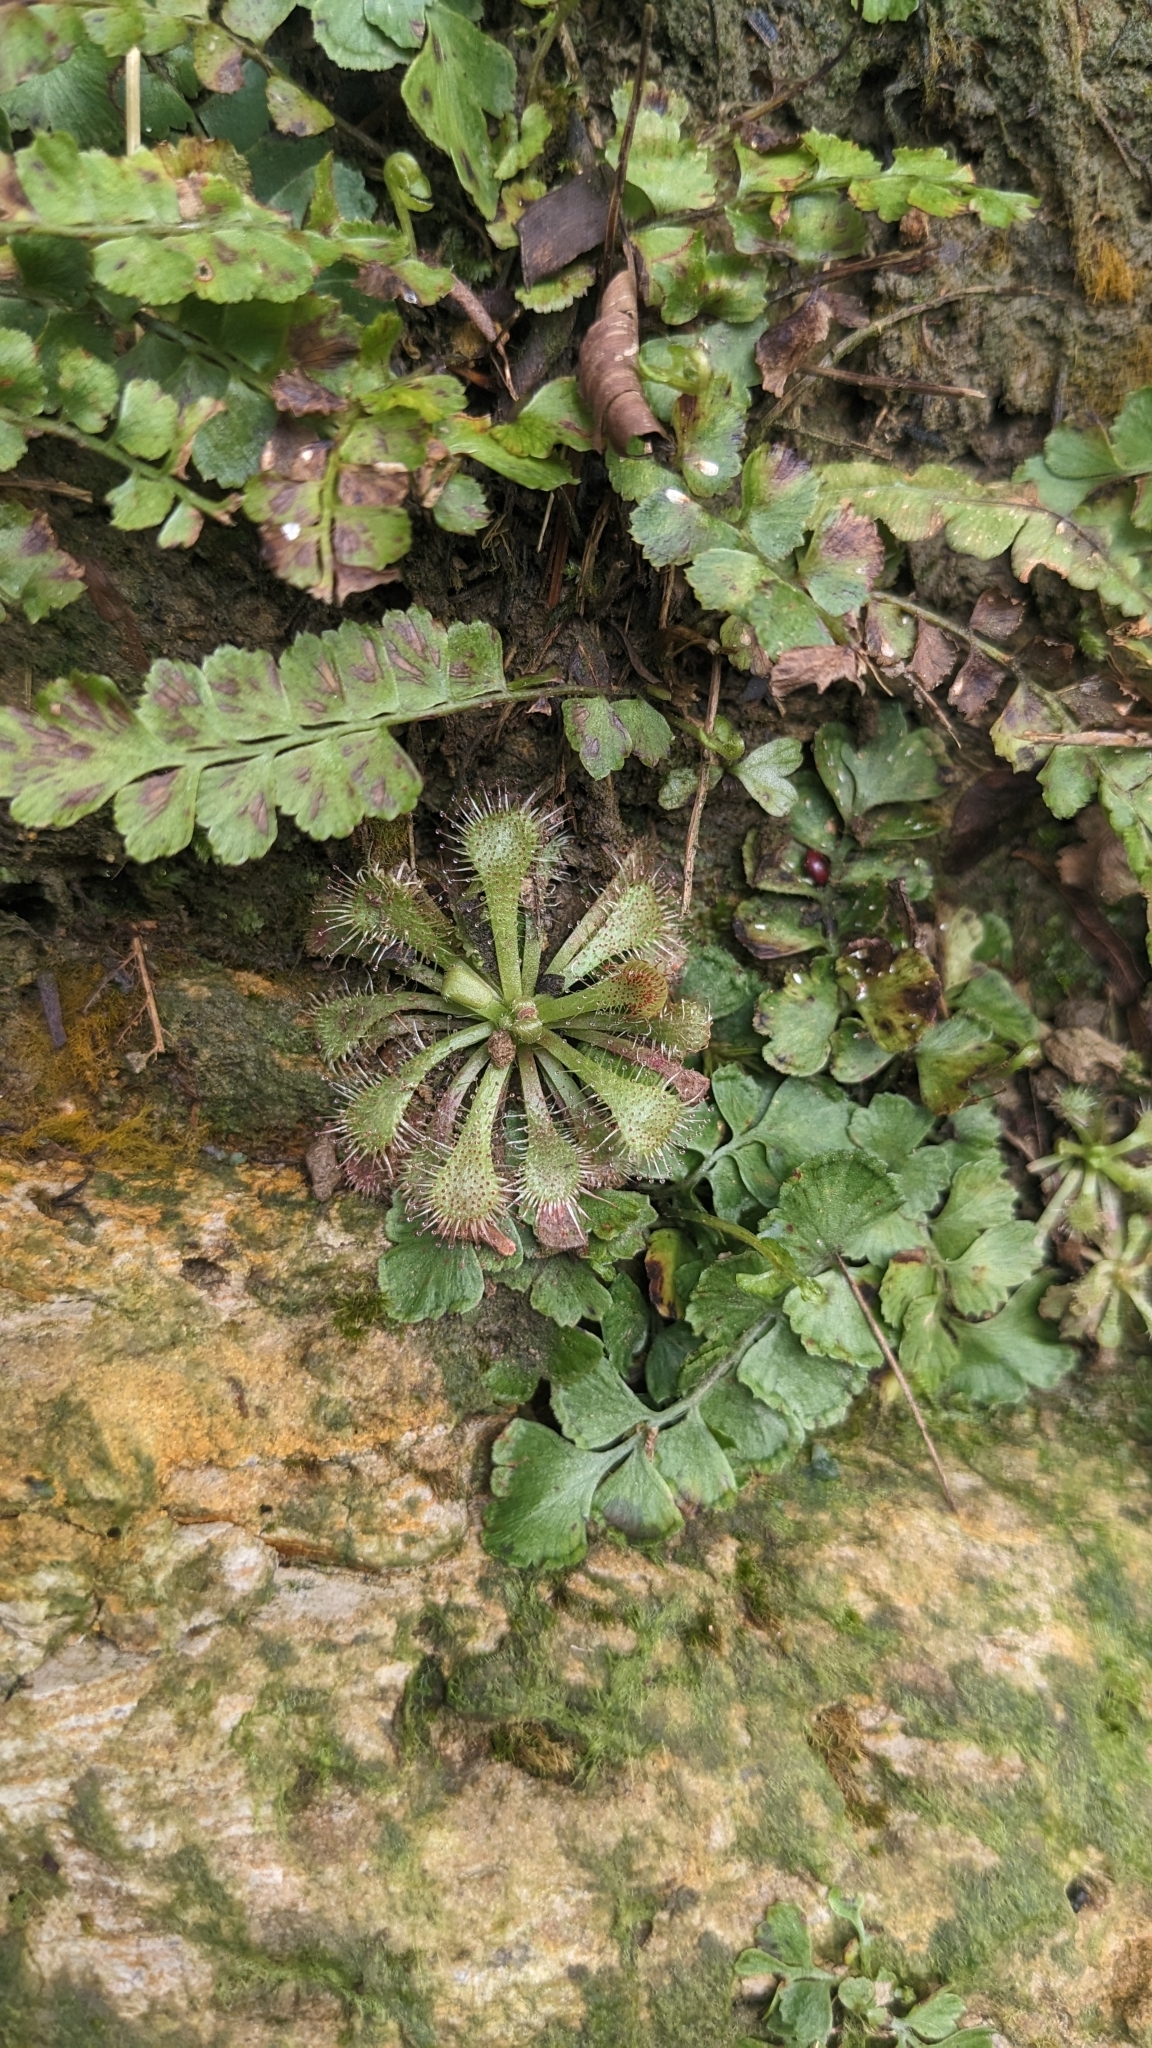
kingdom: Plantae
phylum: Tracheophyta
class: Magnoliopsida
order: Caryophyllales
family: Droseraceae
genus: Drosera
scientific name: Drosera spatulata
